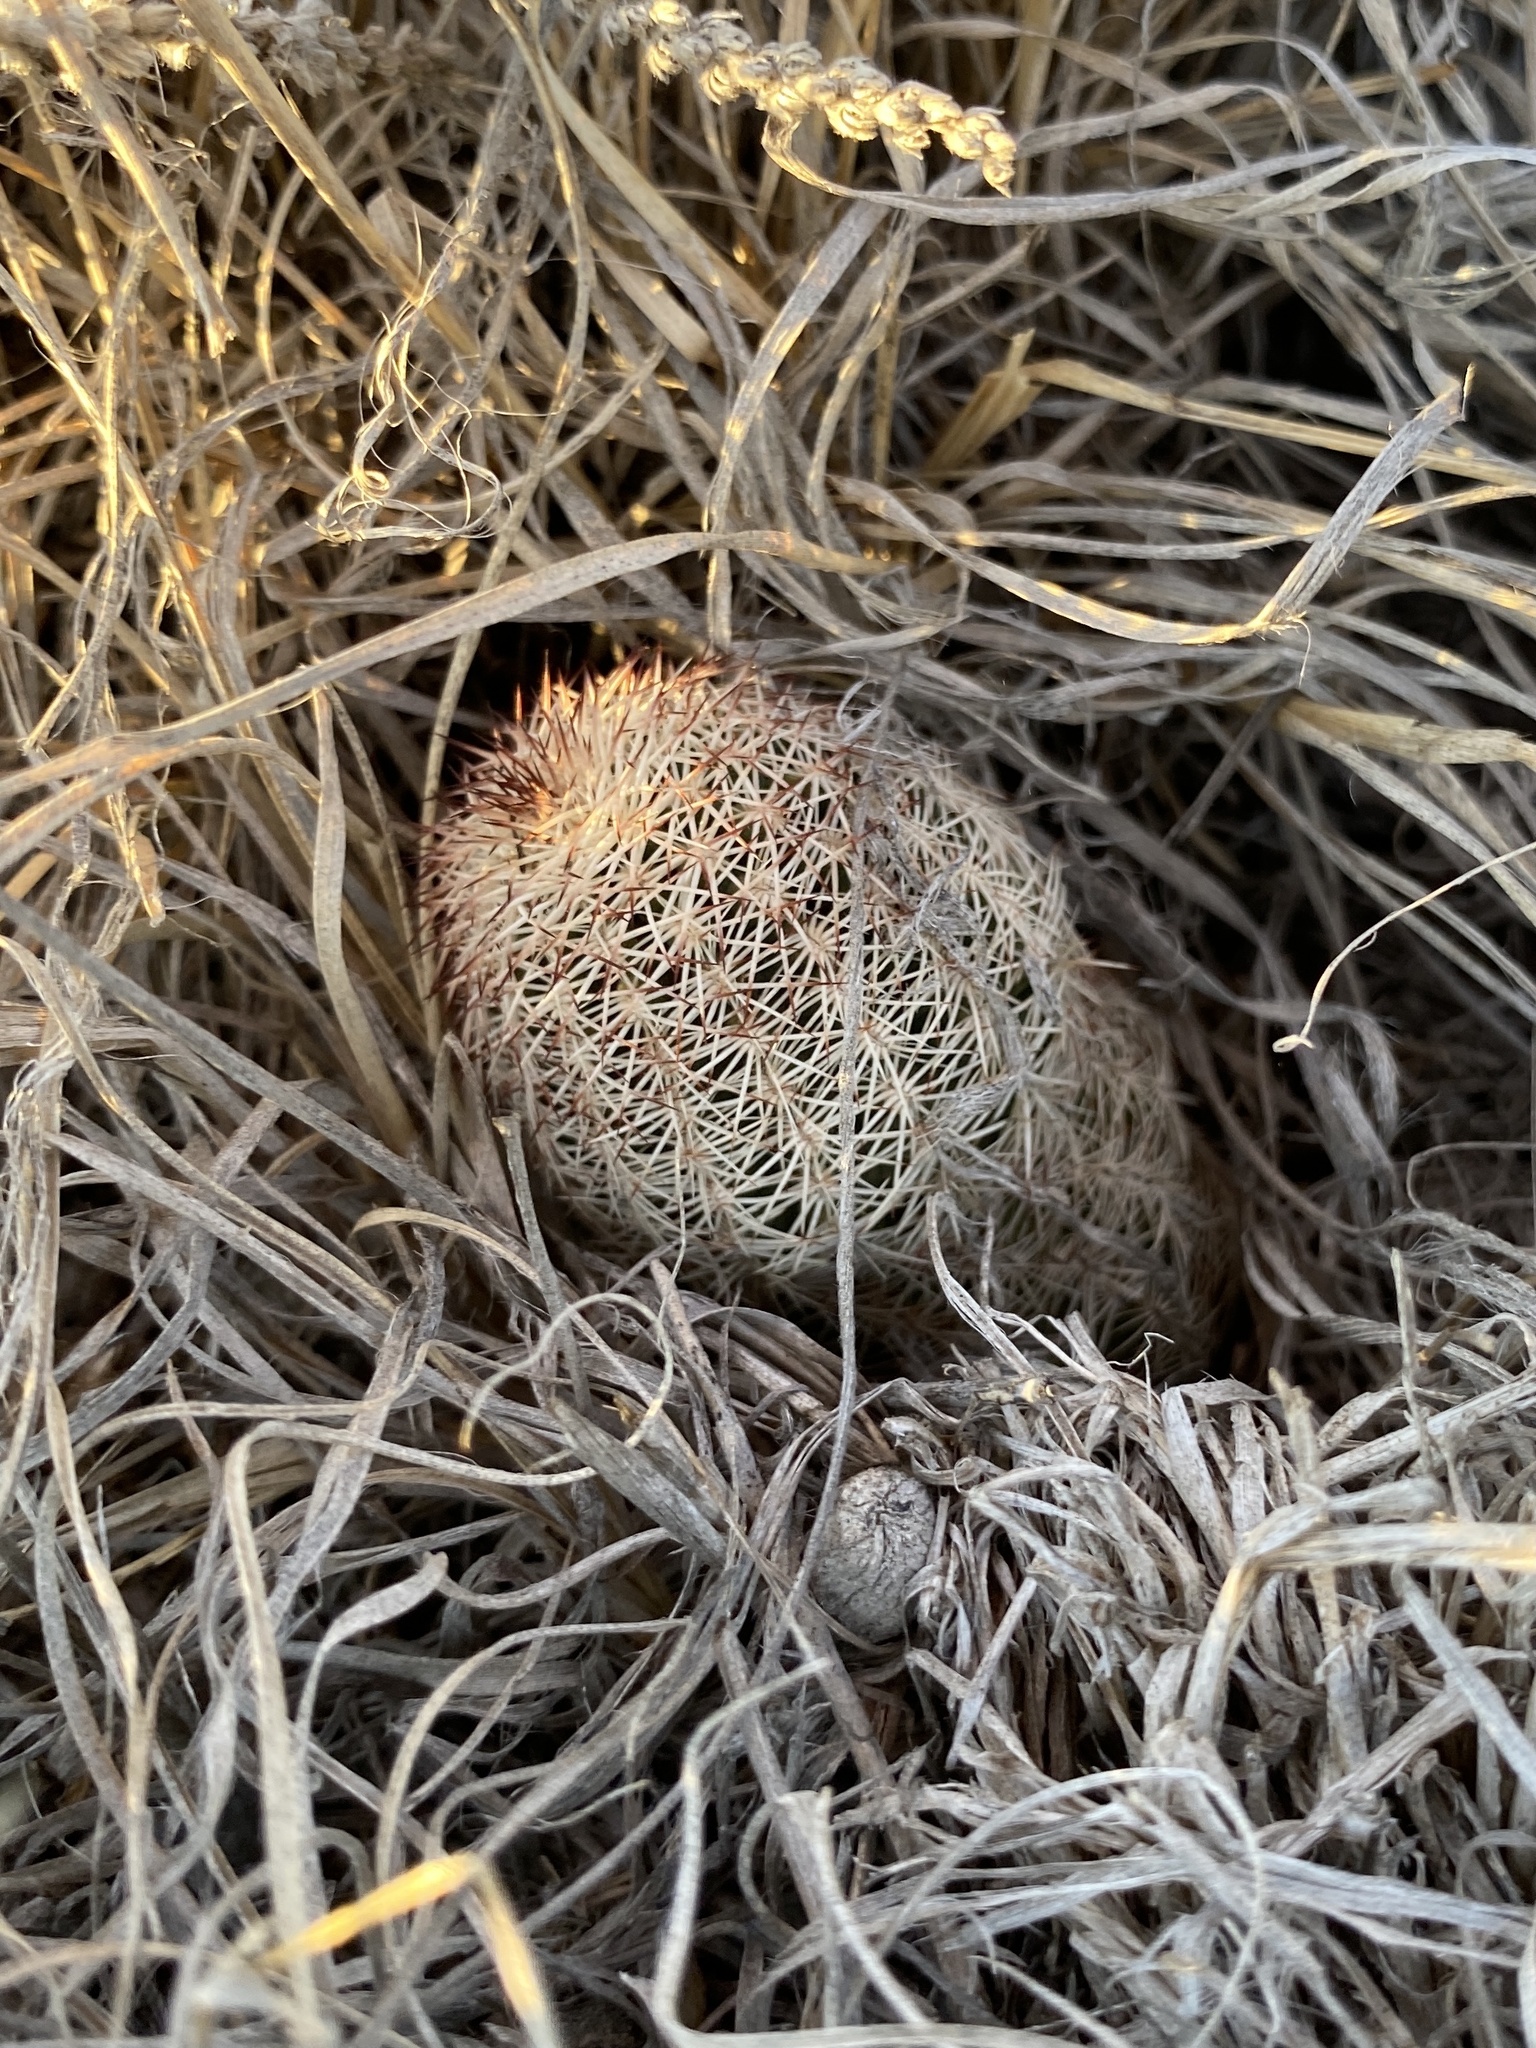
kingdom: Plantae
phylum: Tracheophyta
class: Magnoliopsida
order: Caryophyllales
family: Cactaceae
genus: Echinocereus
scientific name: Echinocereus reichenbachii
